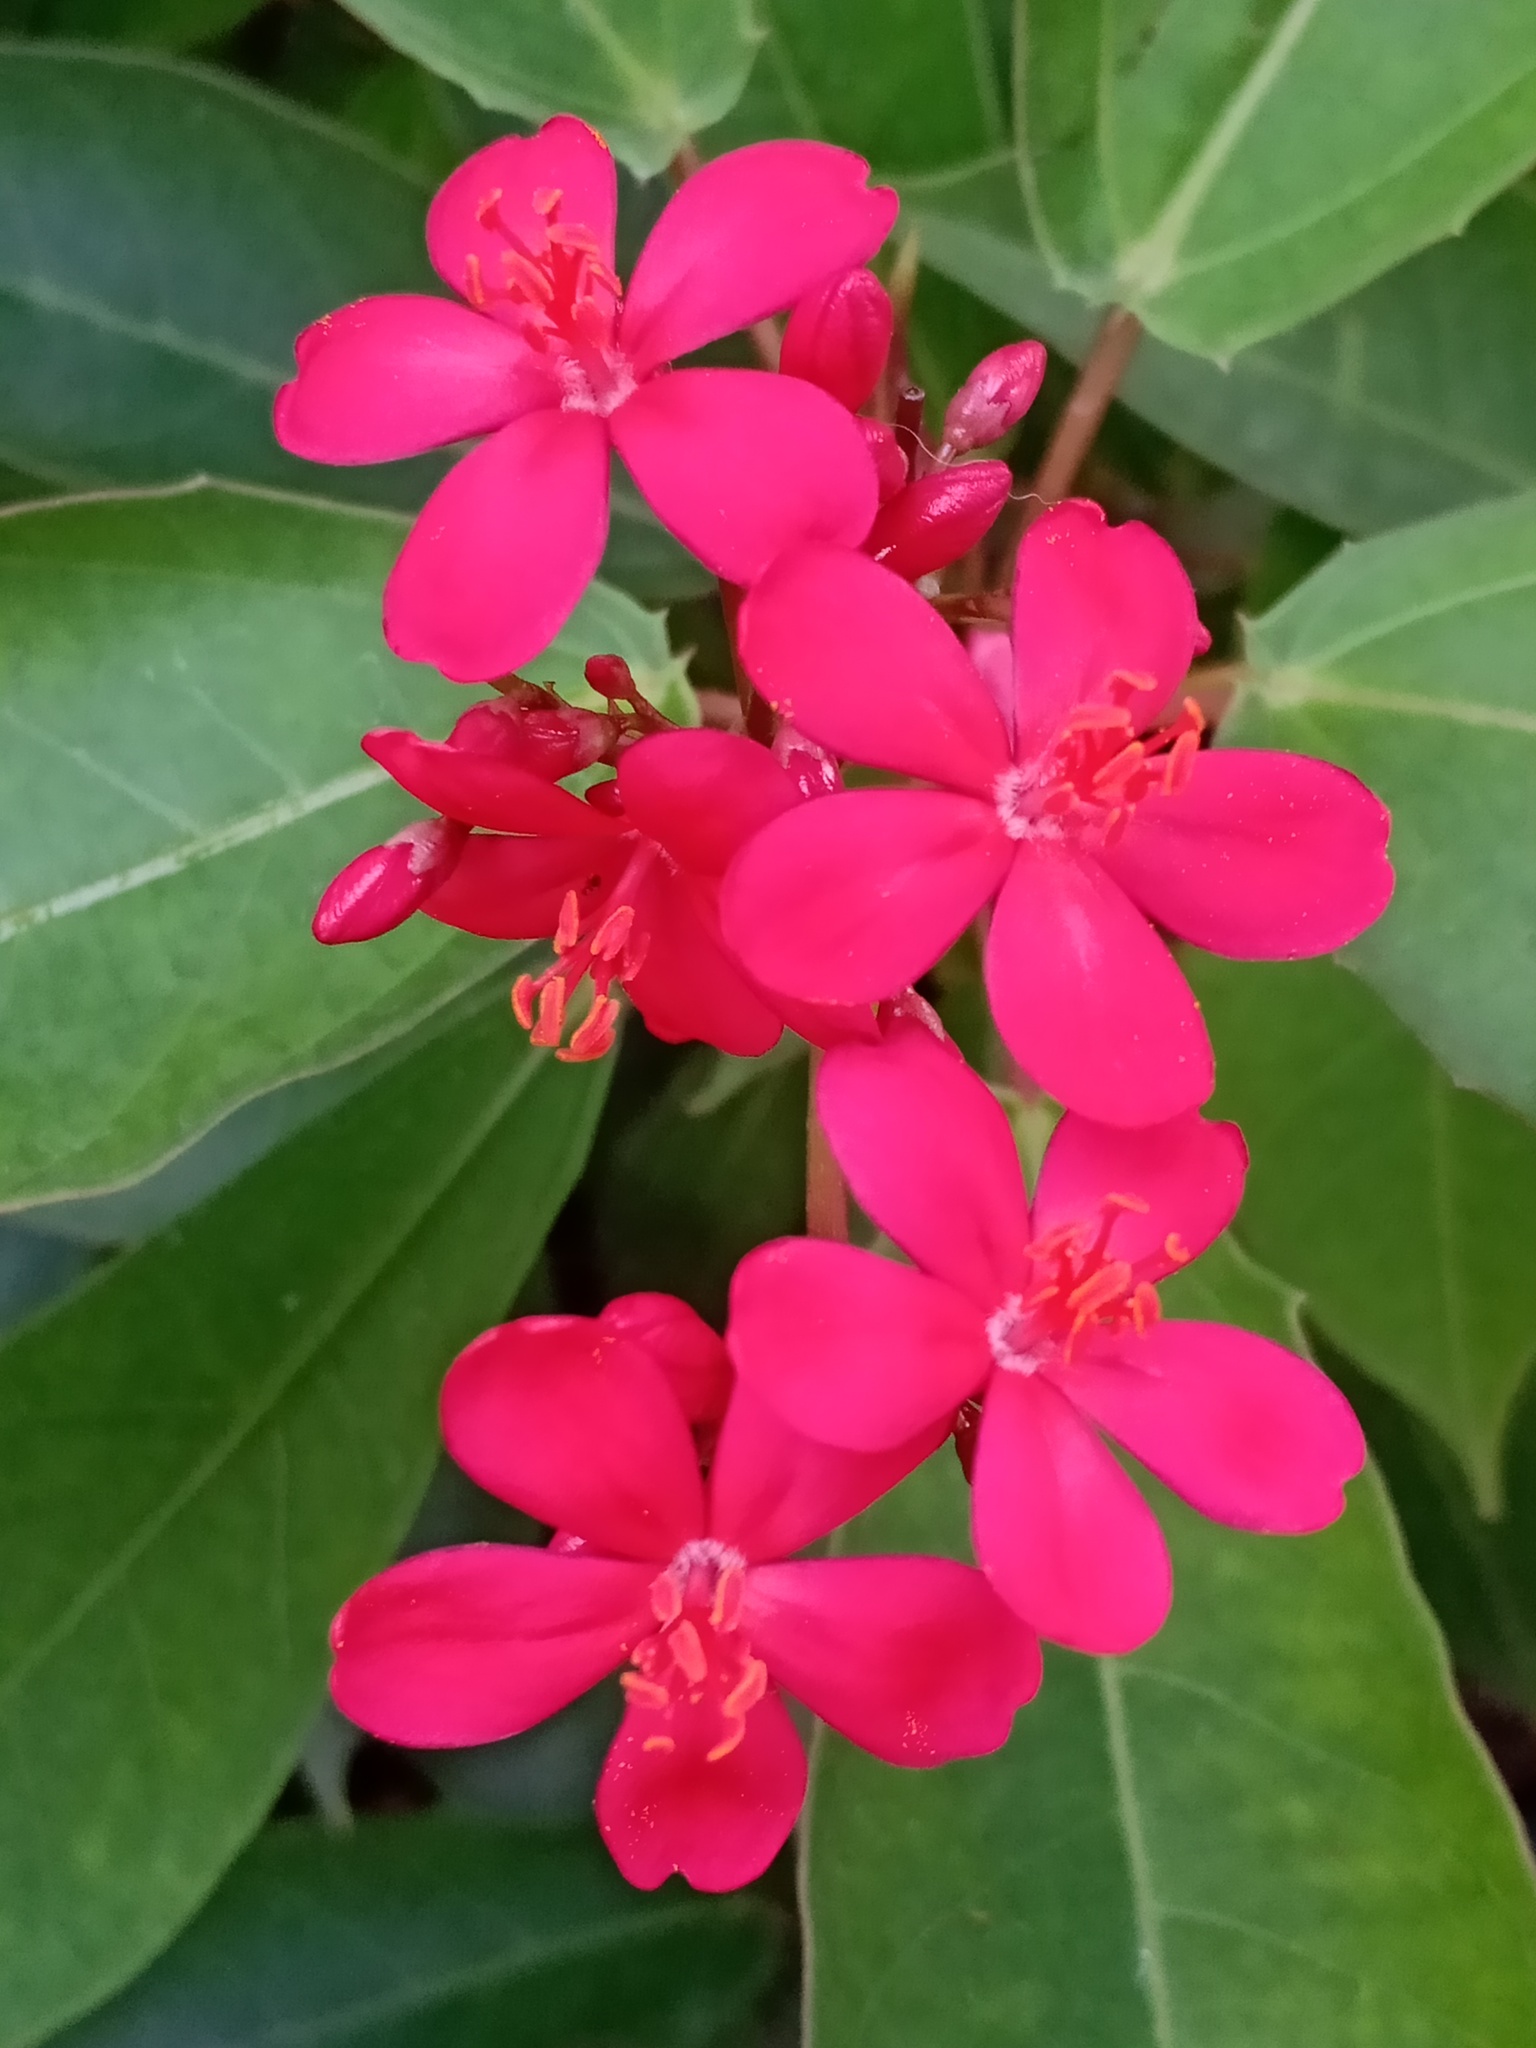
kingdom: Plantae
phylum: Tracheophyta
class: Magnoliopsida
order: Malpighiales
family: Euphorbiaceae
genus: Jatropha
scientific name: Jatropha integerrima
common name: Peregrina
